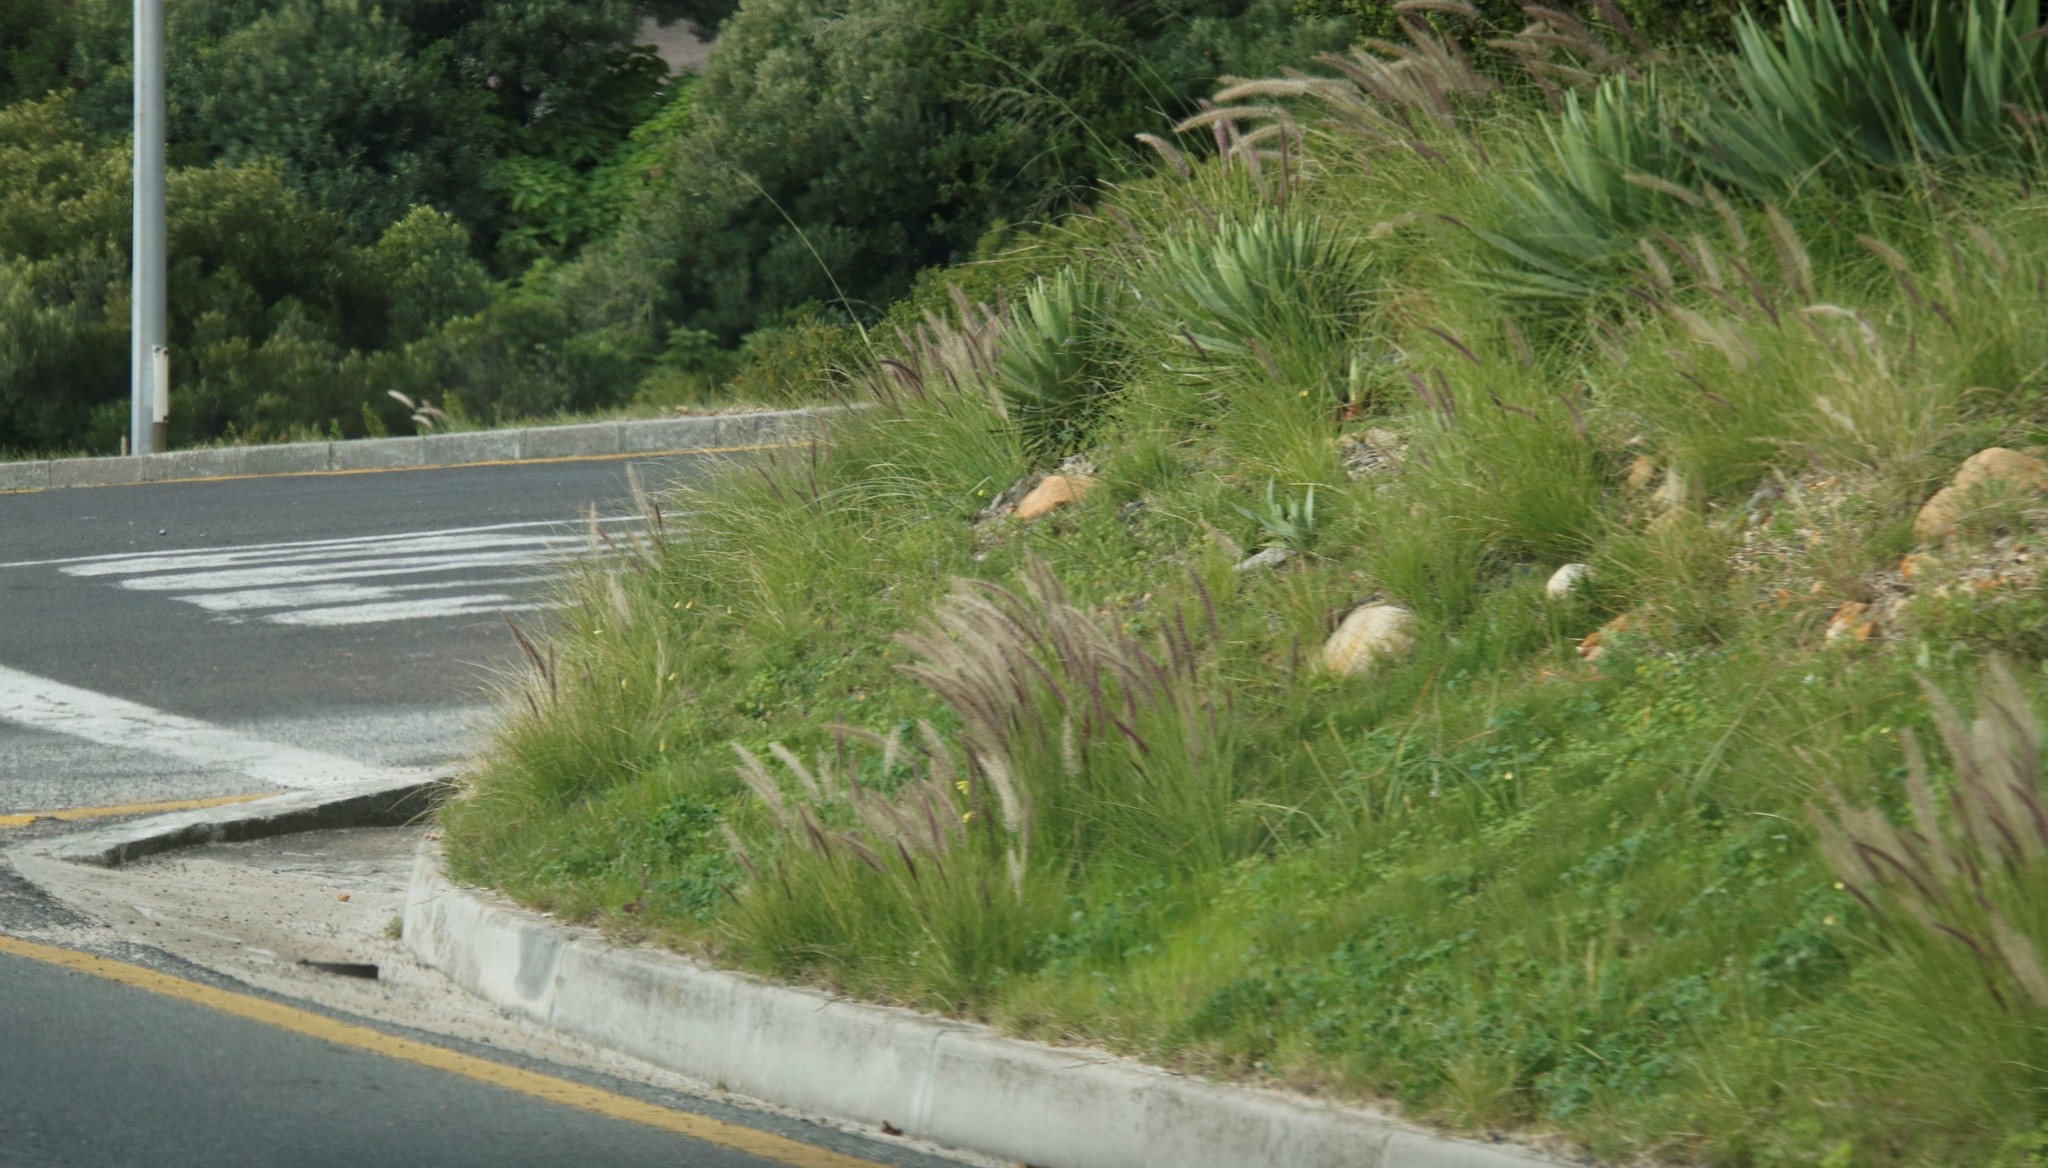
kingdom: Plantae
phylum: Tracheophyta
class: Liliopsida
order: Poales
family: Poaceae
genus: Cenchrus
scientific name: Cenchrus setaceus
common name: Crimson fountaingrass
